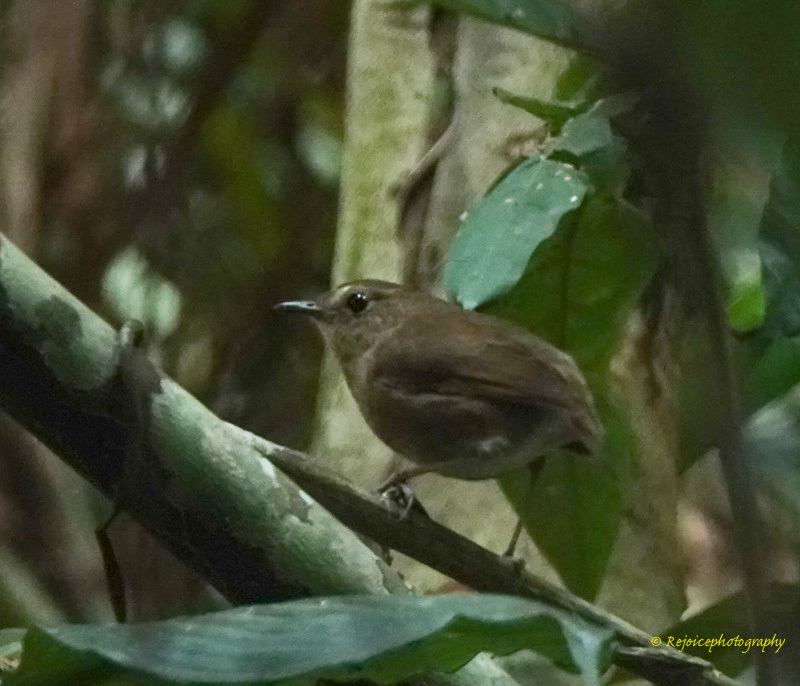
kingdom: Animalia
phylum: Chordata
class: Aves
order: Passeriformes
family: Muscicapidae
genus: Brachypteryx
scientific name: Brachypteryx leucophris
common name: Lesser shortwing
